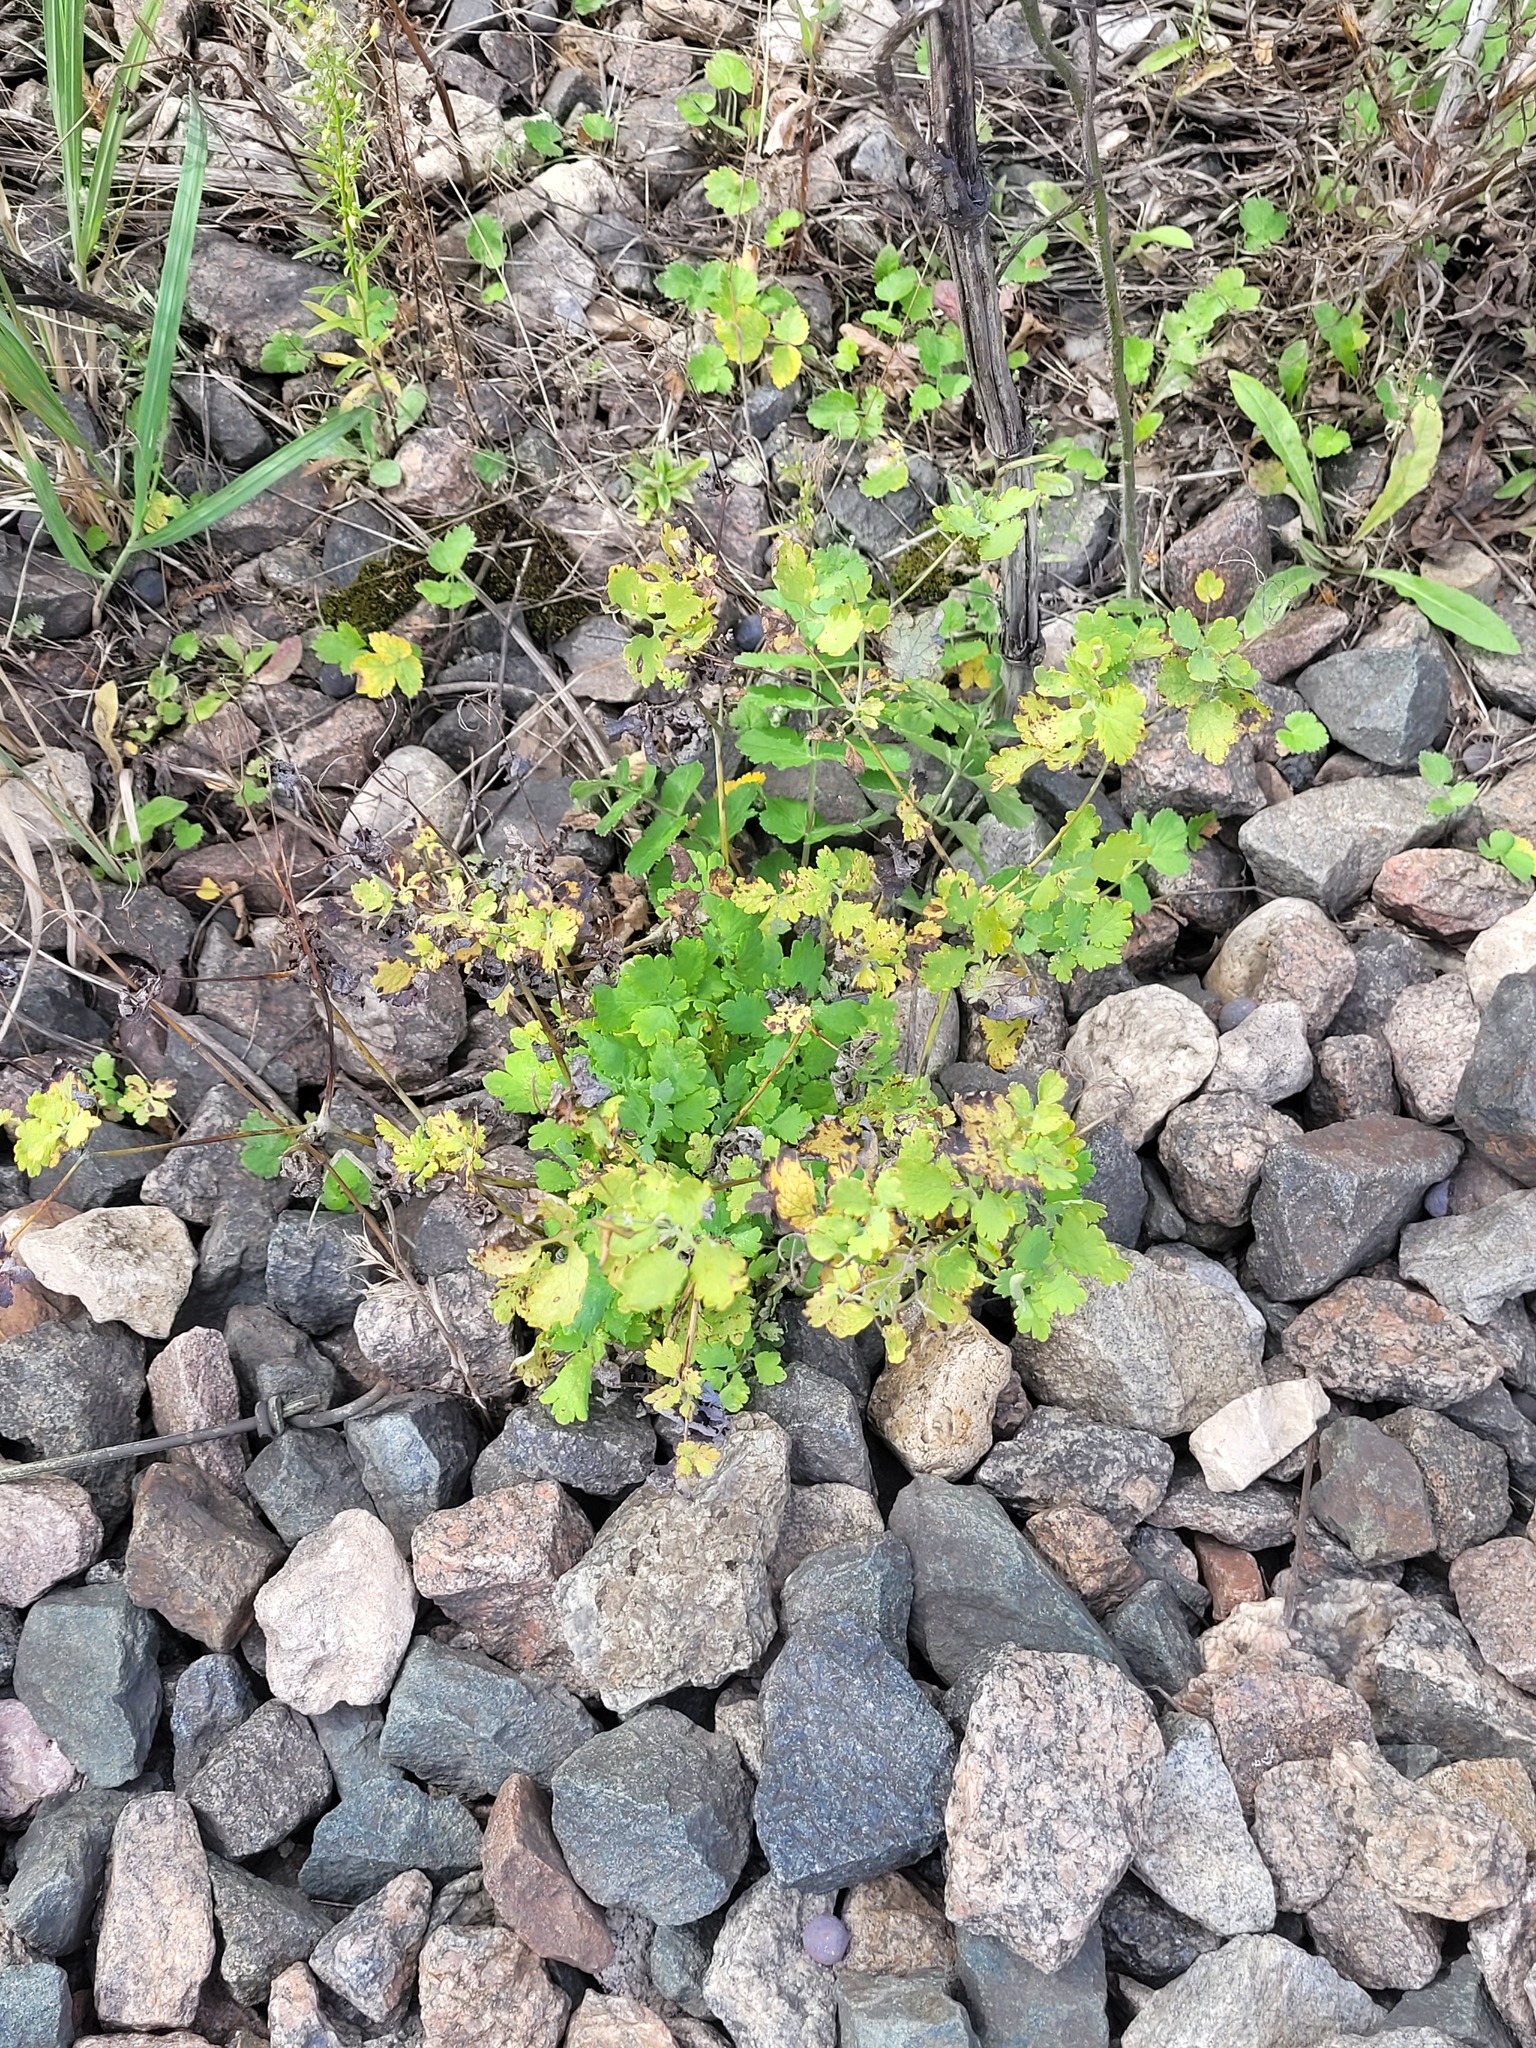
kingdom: Plantae
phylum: Tracheophyta
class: Magnoliopsida
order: Ranunculales
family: Papaveraceae
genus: Chelidonium
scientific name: Chelidonium majus
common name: Greater celandine
